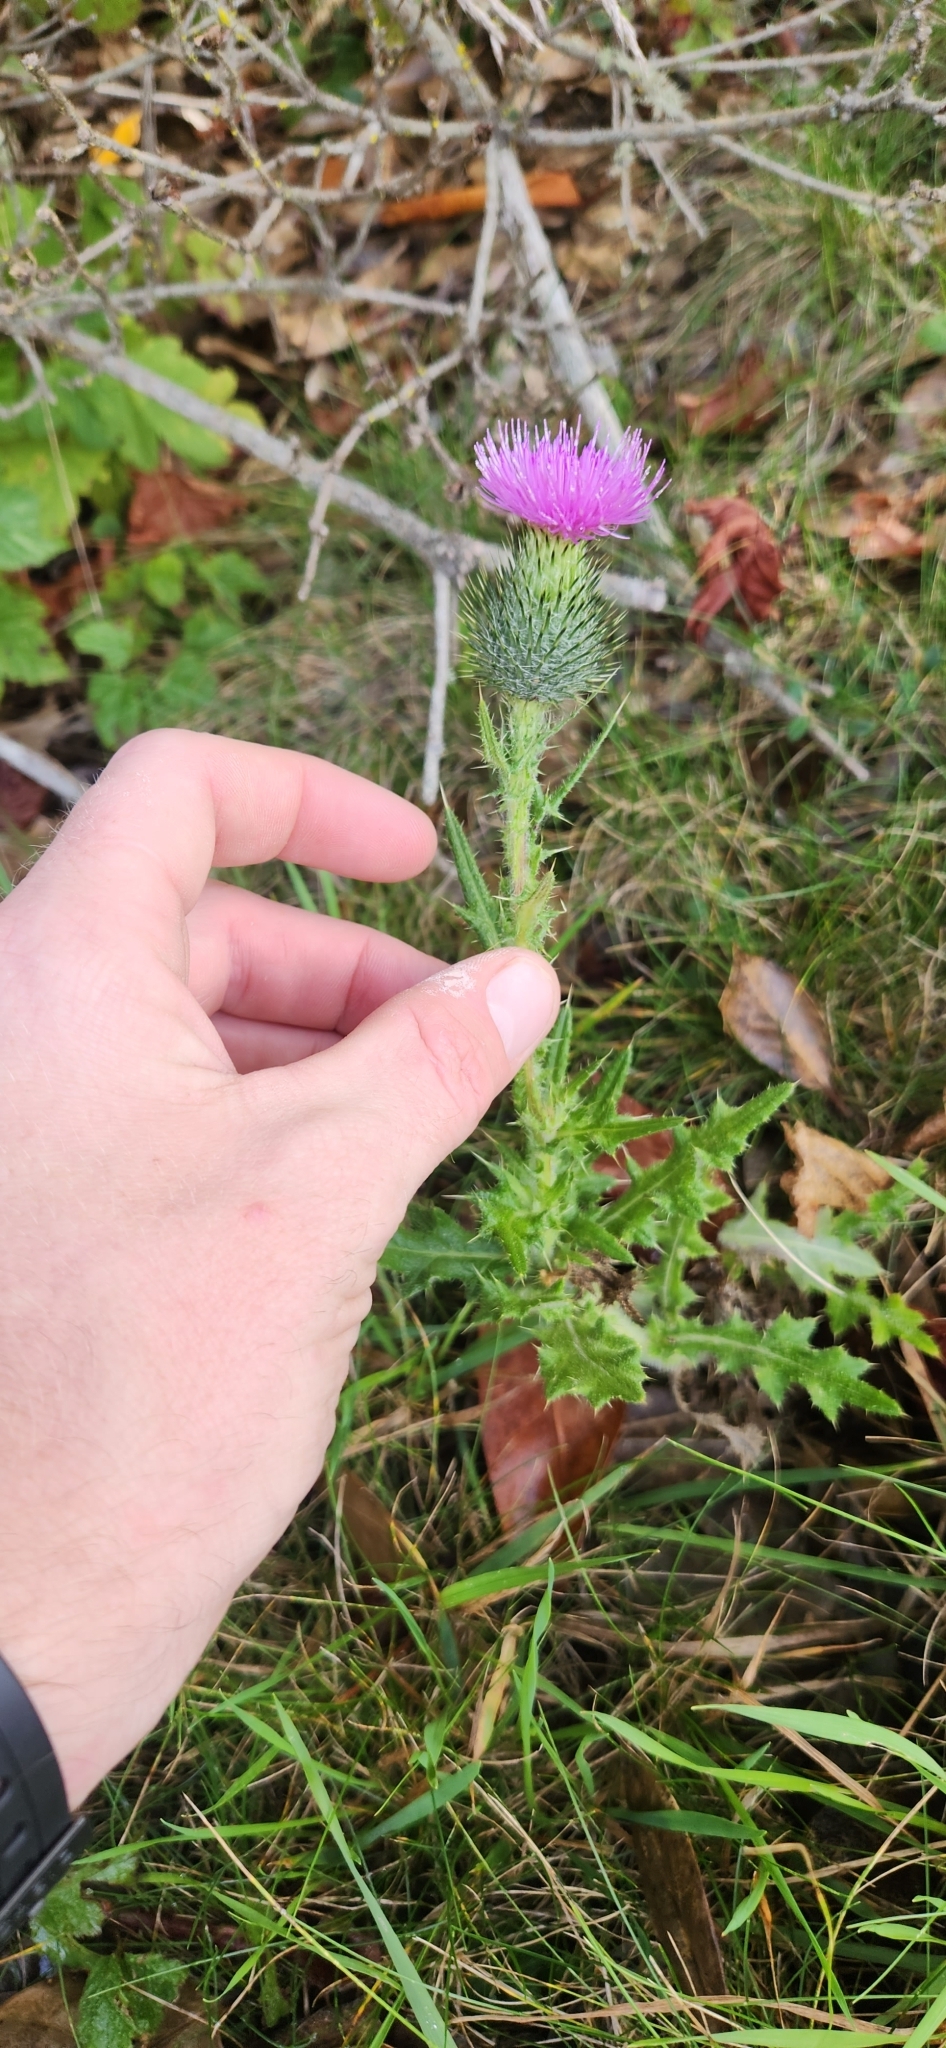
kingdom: Plantae
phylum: Tracheophyta
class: Magnoliopsida
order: Asterales
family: Asteraceae
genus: Cirsium
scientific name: Cirsium vulgare
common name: Bull thistle
